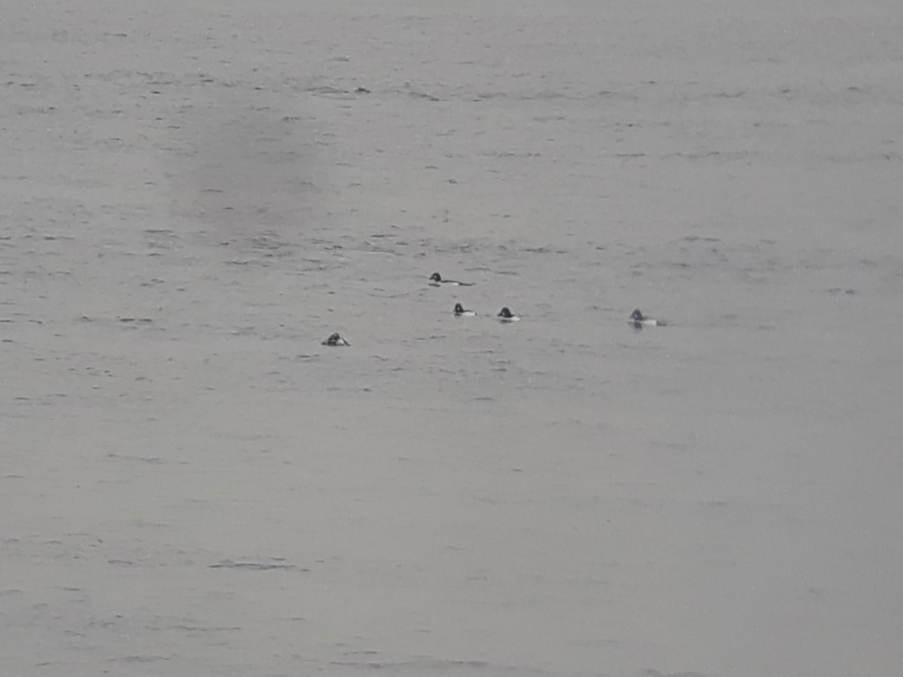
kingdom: Animalia
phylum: Chordata
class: Aves
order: Anseriformes
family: Anatidae
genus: Bucephala
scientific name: Bucephala clangula
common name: Common goldeneye
